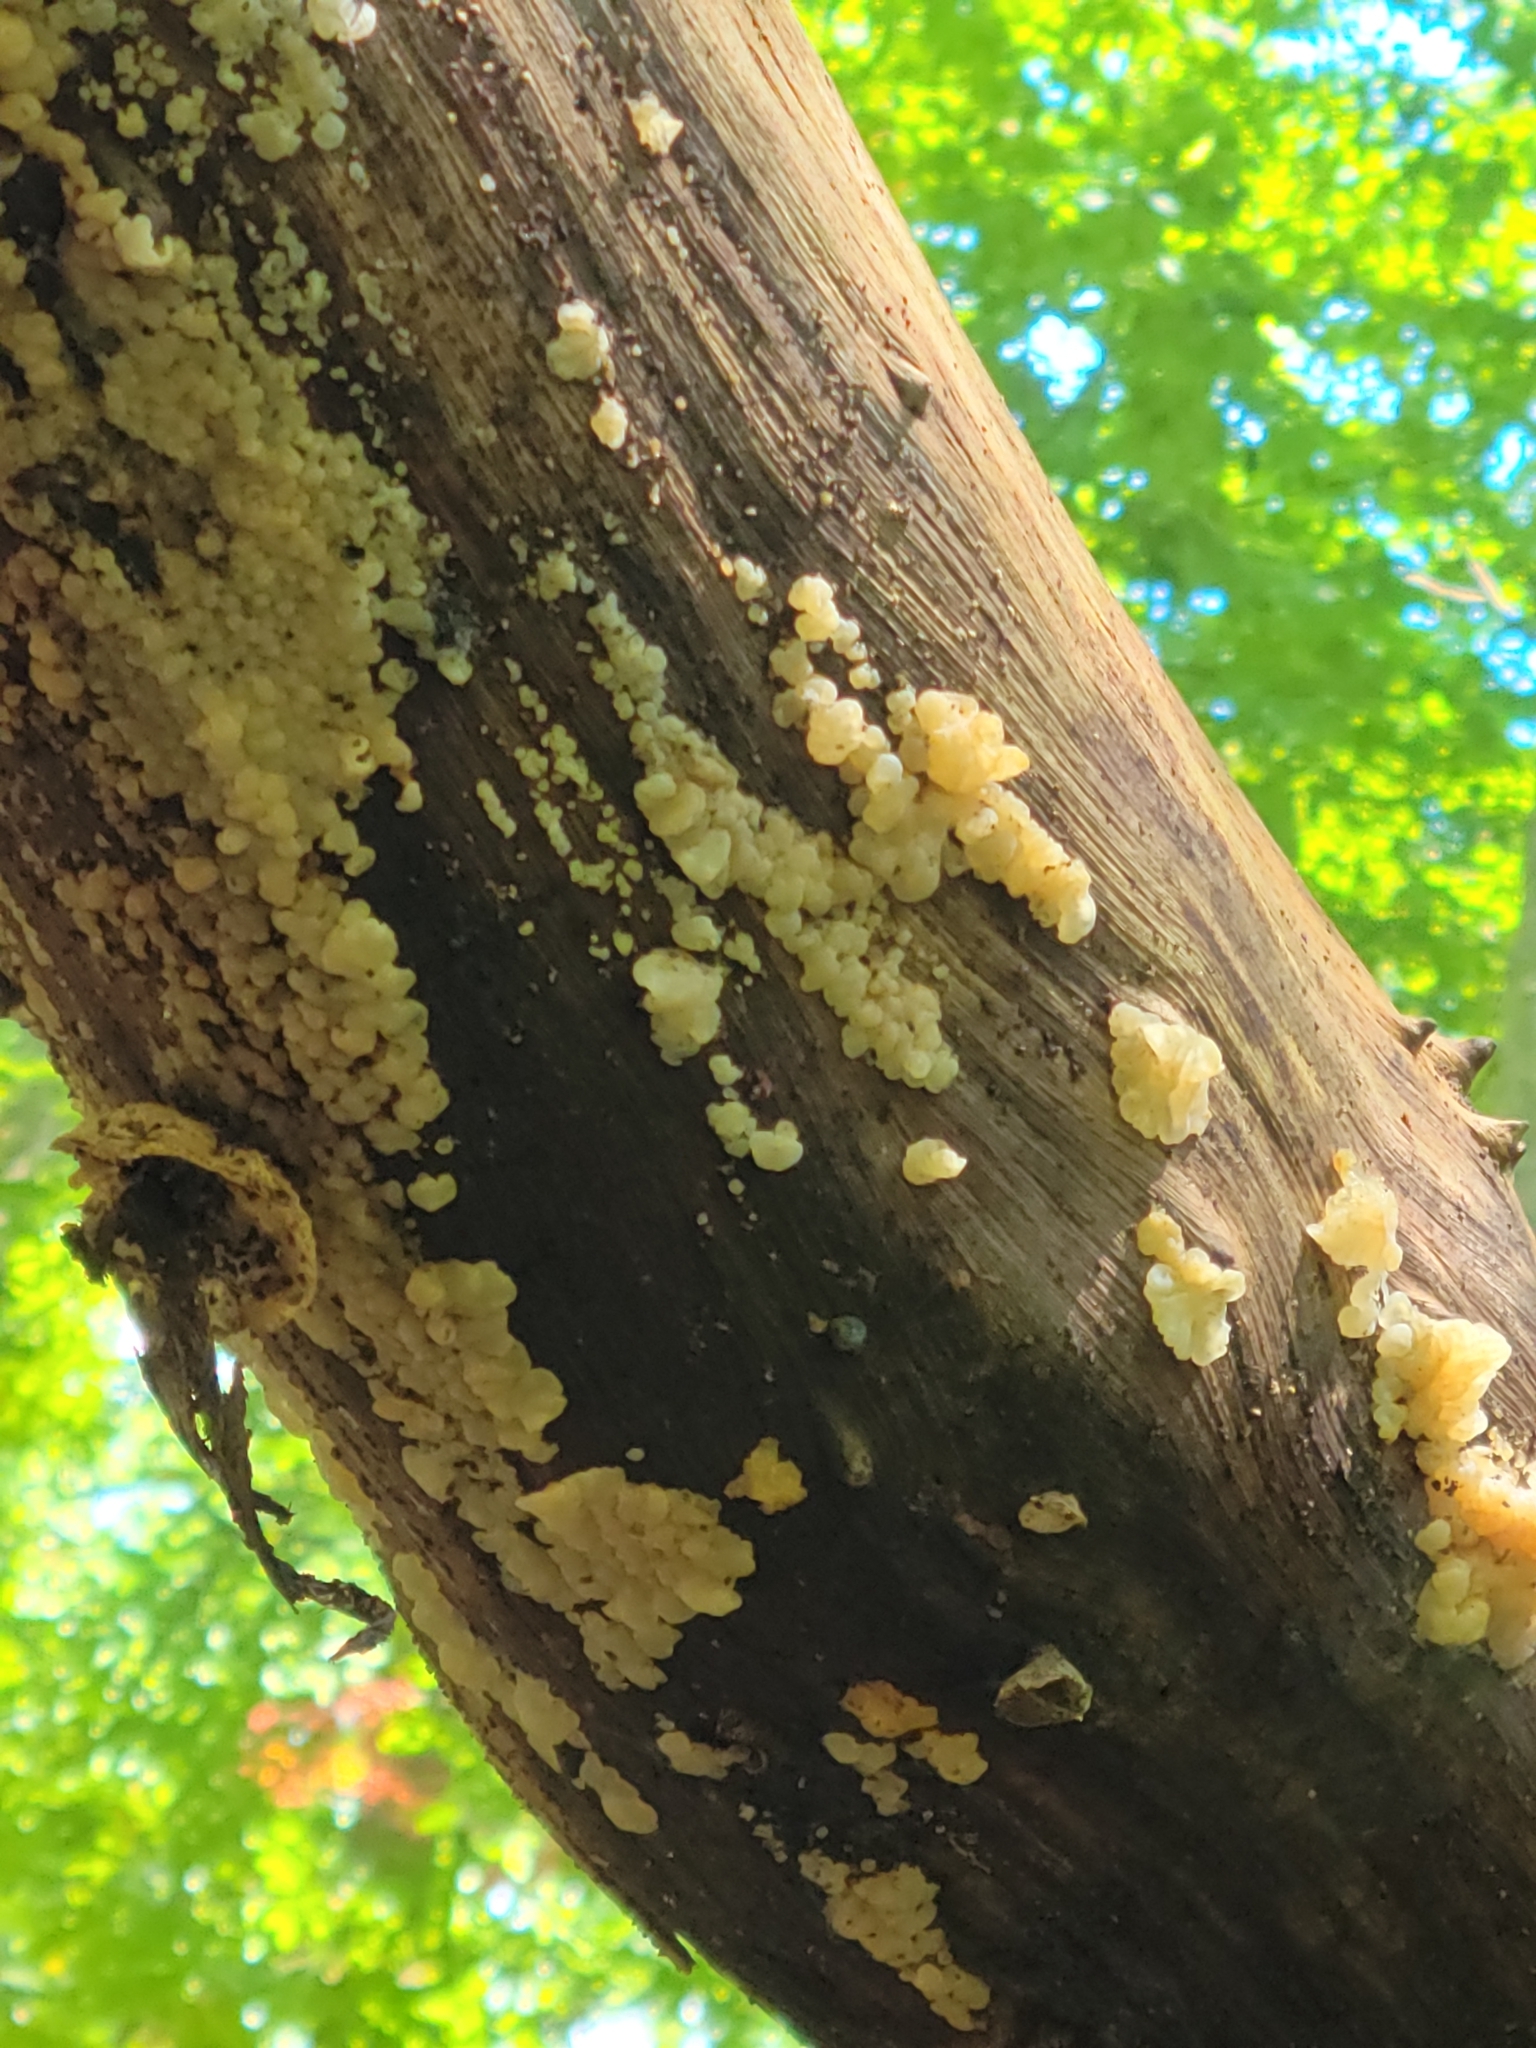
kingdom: Fungi
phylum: Basidiomycota
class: Agaricomycetes
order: Auriculariales
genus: Ductifera
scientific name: Ductifera pululahuana
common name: White jelly fungus
